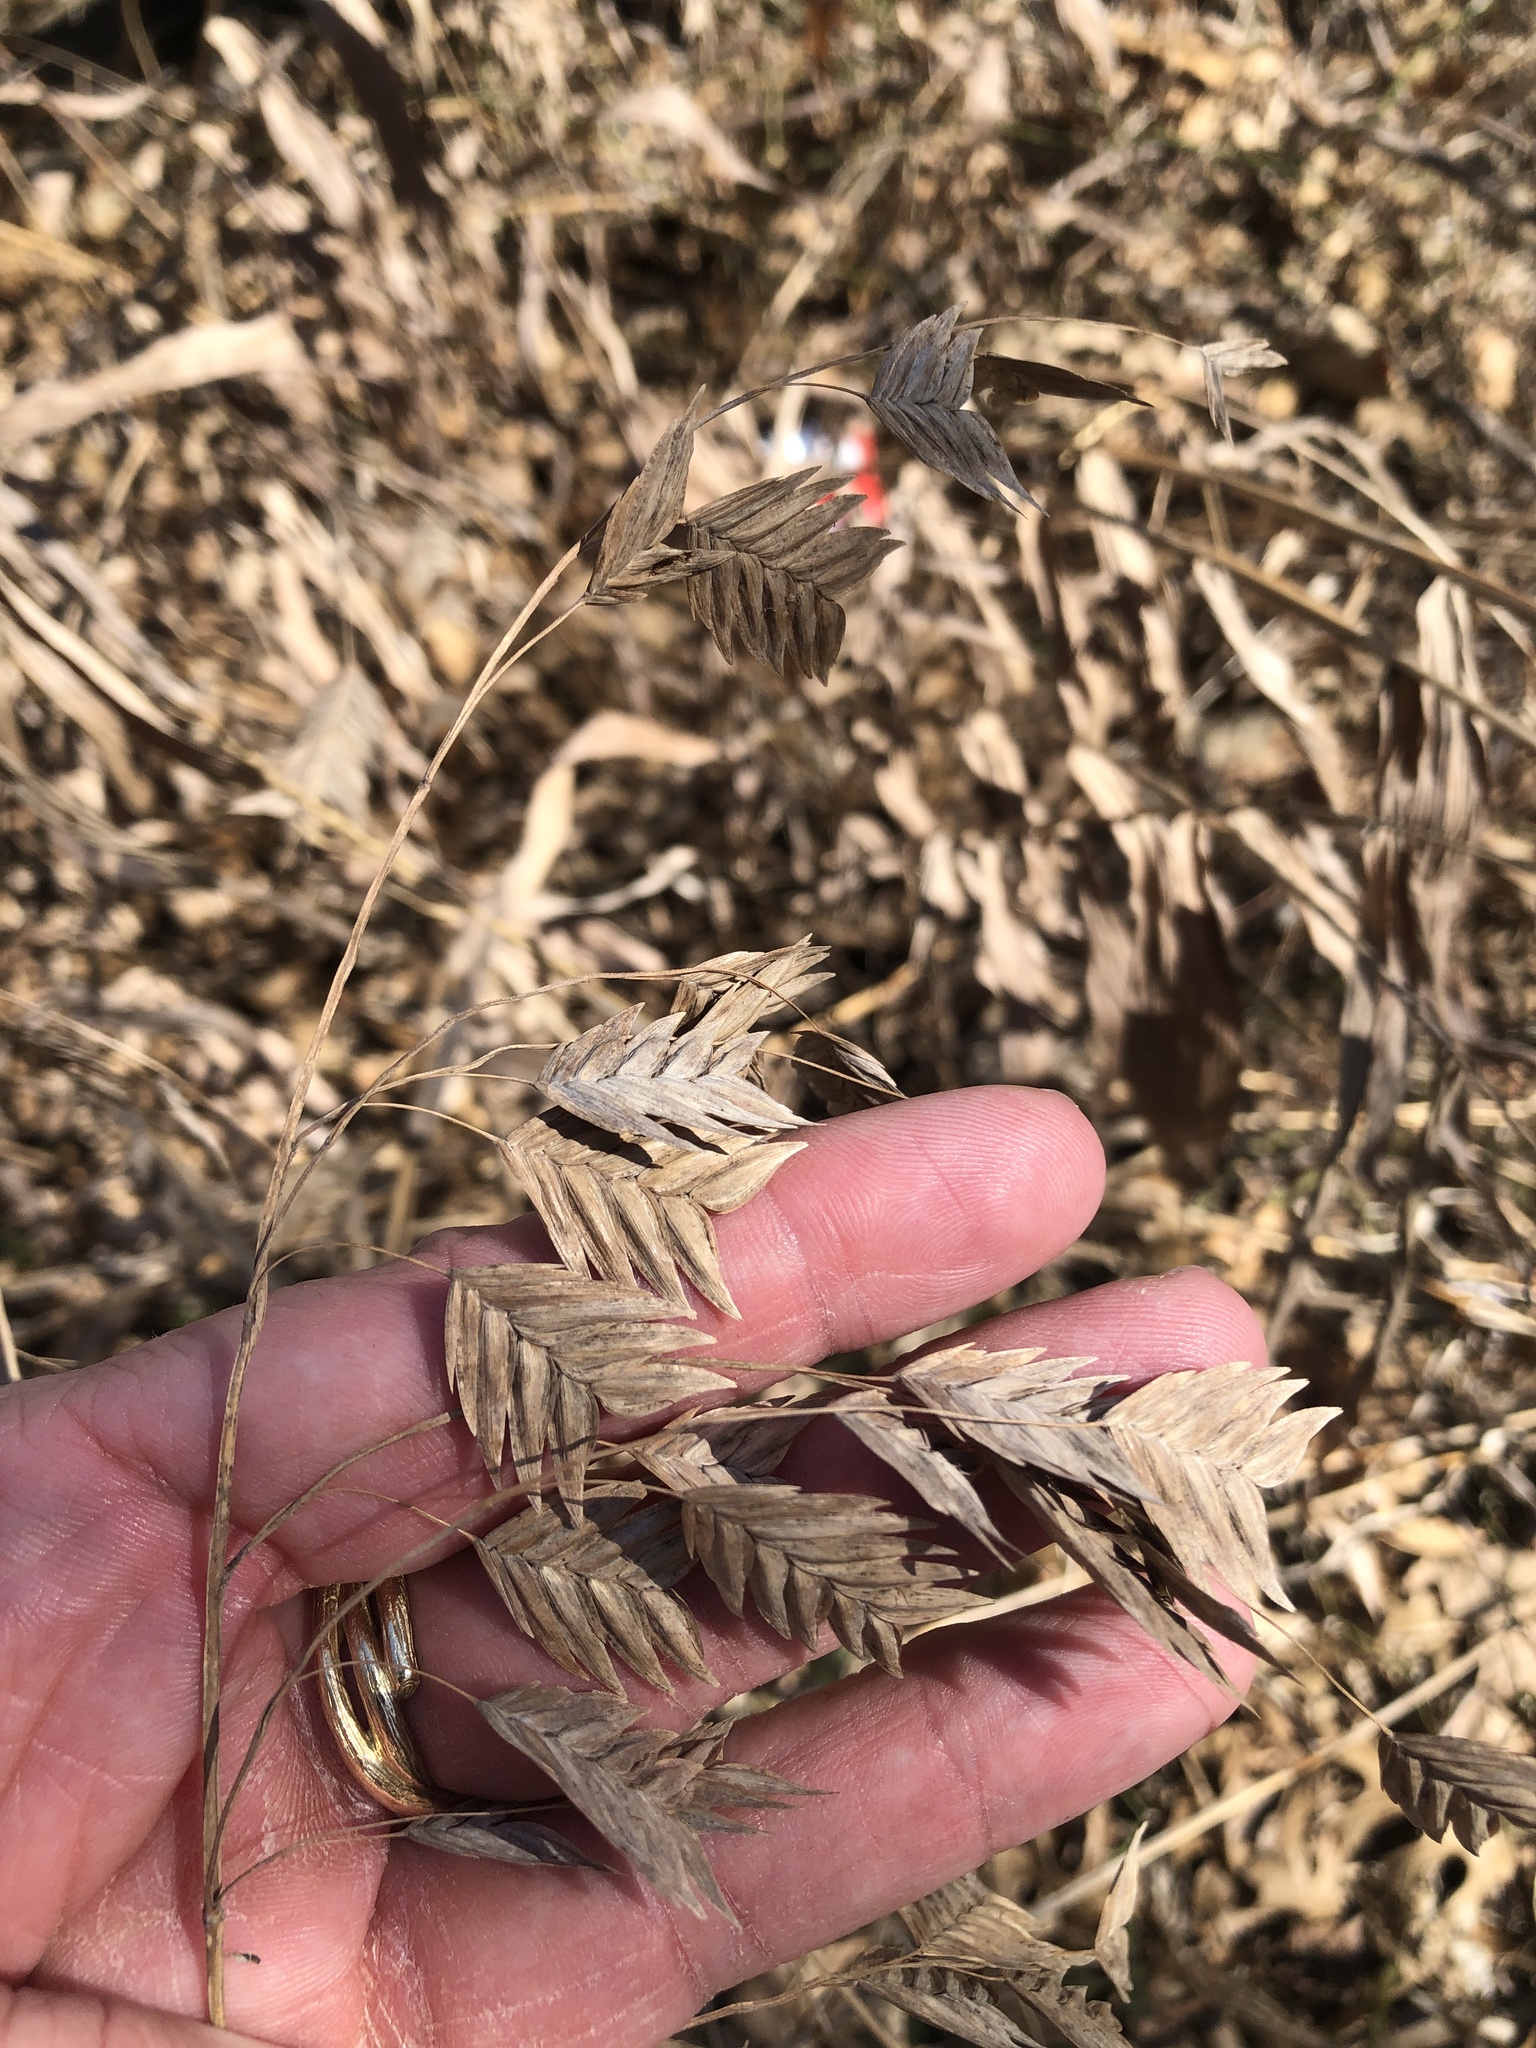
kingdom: Plantae
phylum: Tracheophyta
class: Liliopsida
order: Poales
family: Poaceae
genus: Chasmanthium
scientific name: Chasmanthium latifolium
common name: Broad-leaved chasmanthium
